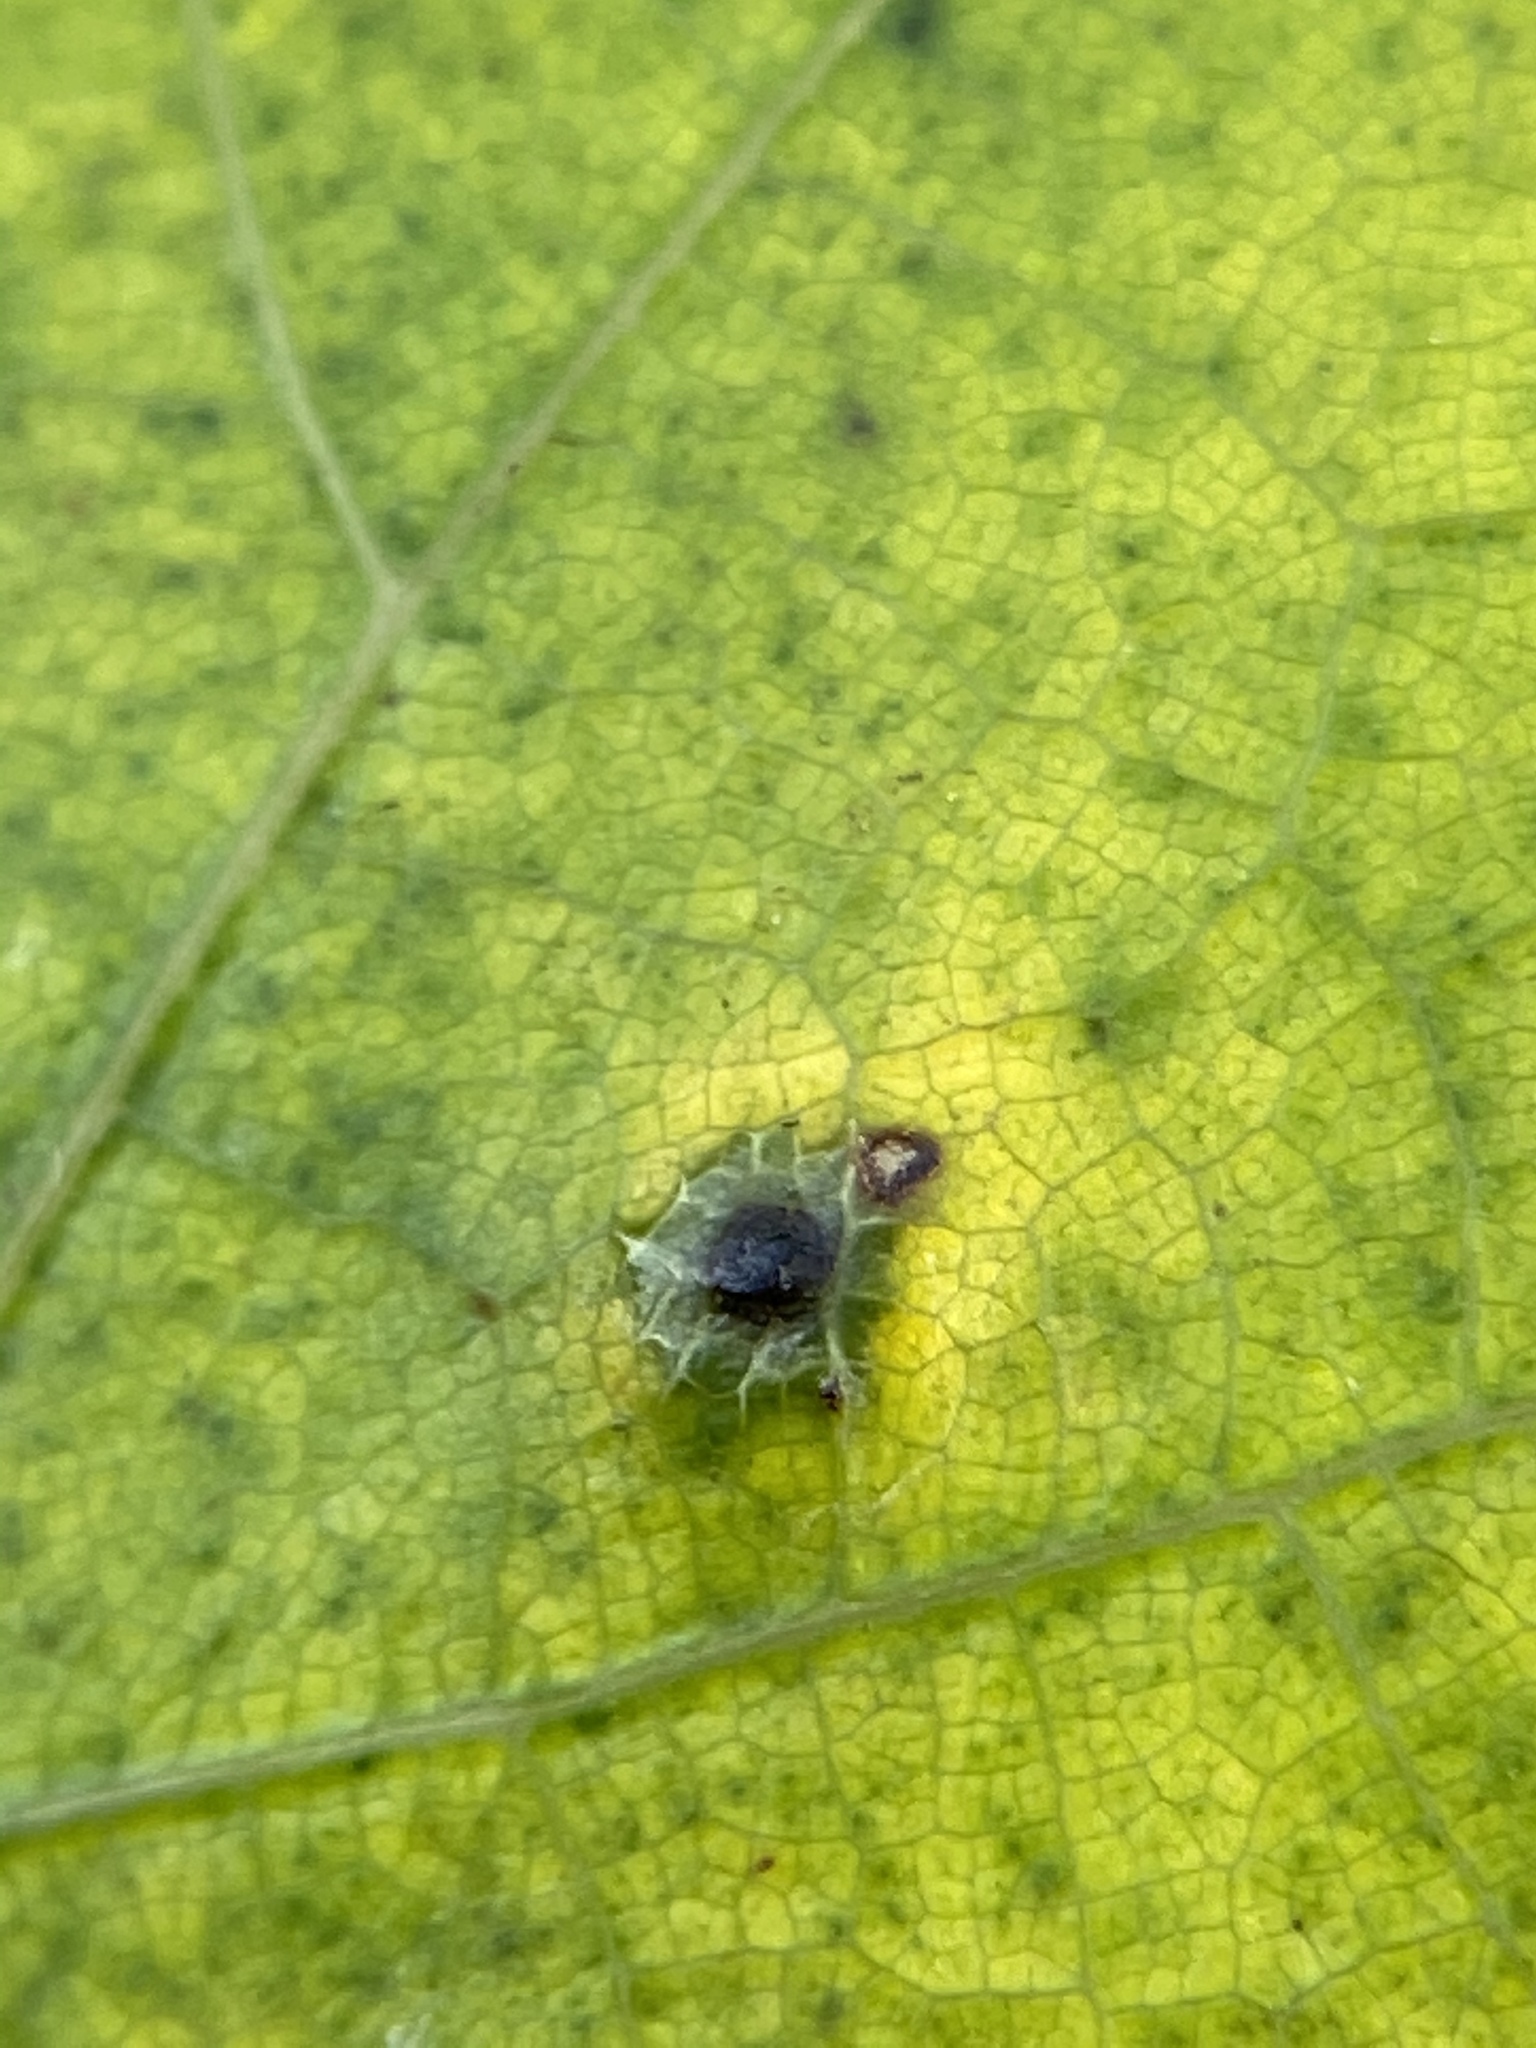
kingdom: Animalia
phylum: Arthropoda
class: Insecta
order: Diptera
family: Cecidomyiidae
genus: Polystepha
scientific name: Polystepha globosa
